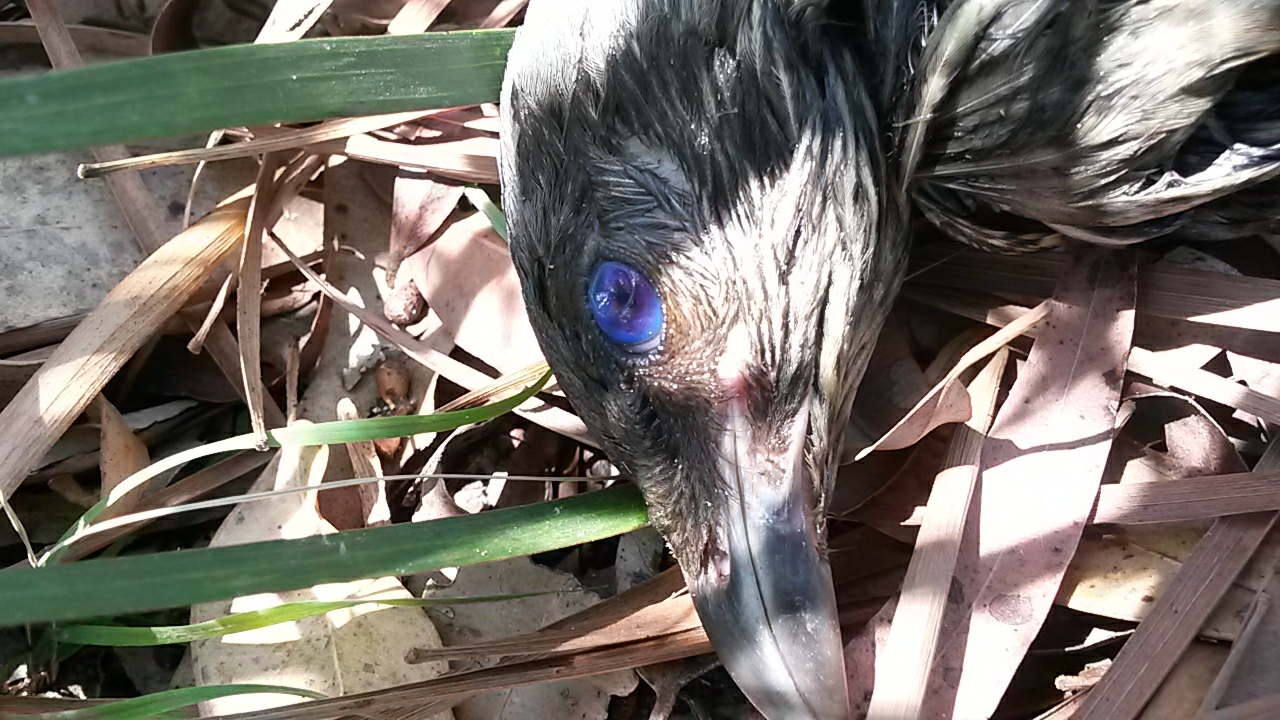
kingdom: Animalia
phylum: Chordata
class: Aves
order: Passeriformes
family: Ptilonorhynchidae
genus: Ptilonorhynchus
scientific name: Ptilonorhynchus violaceus
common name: Satin bowerbird
